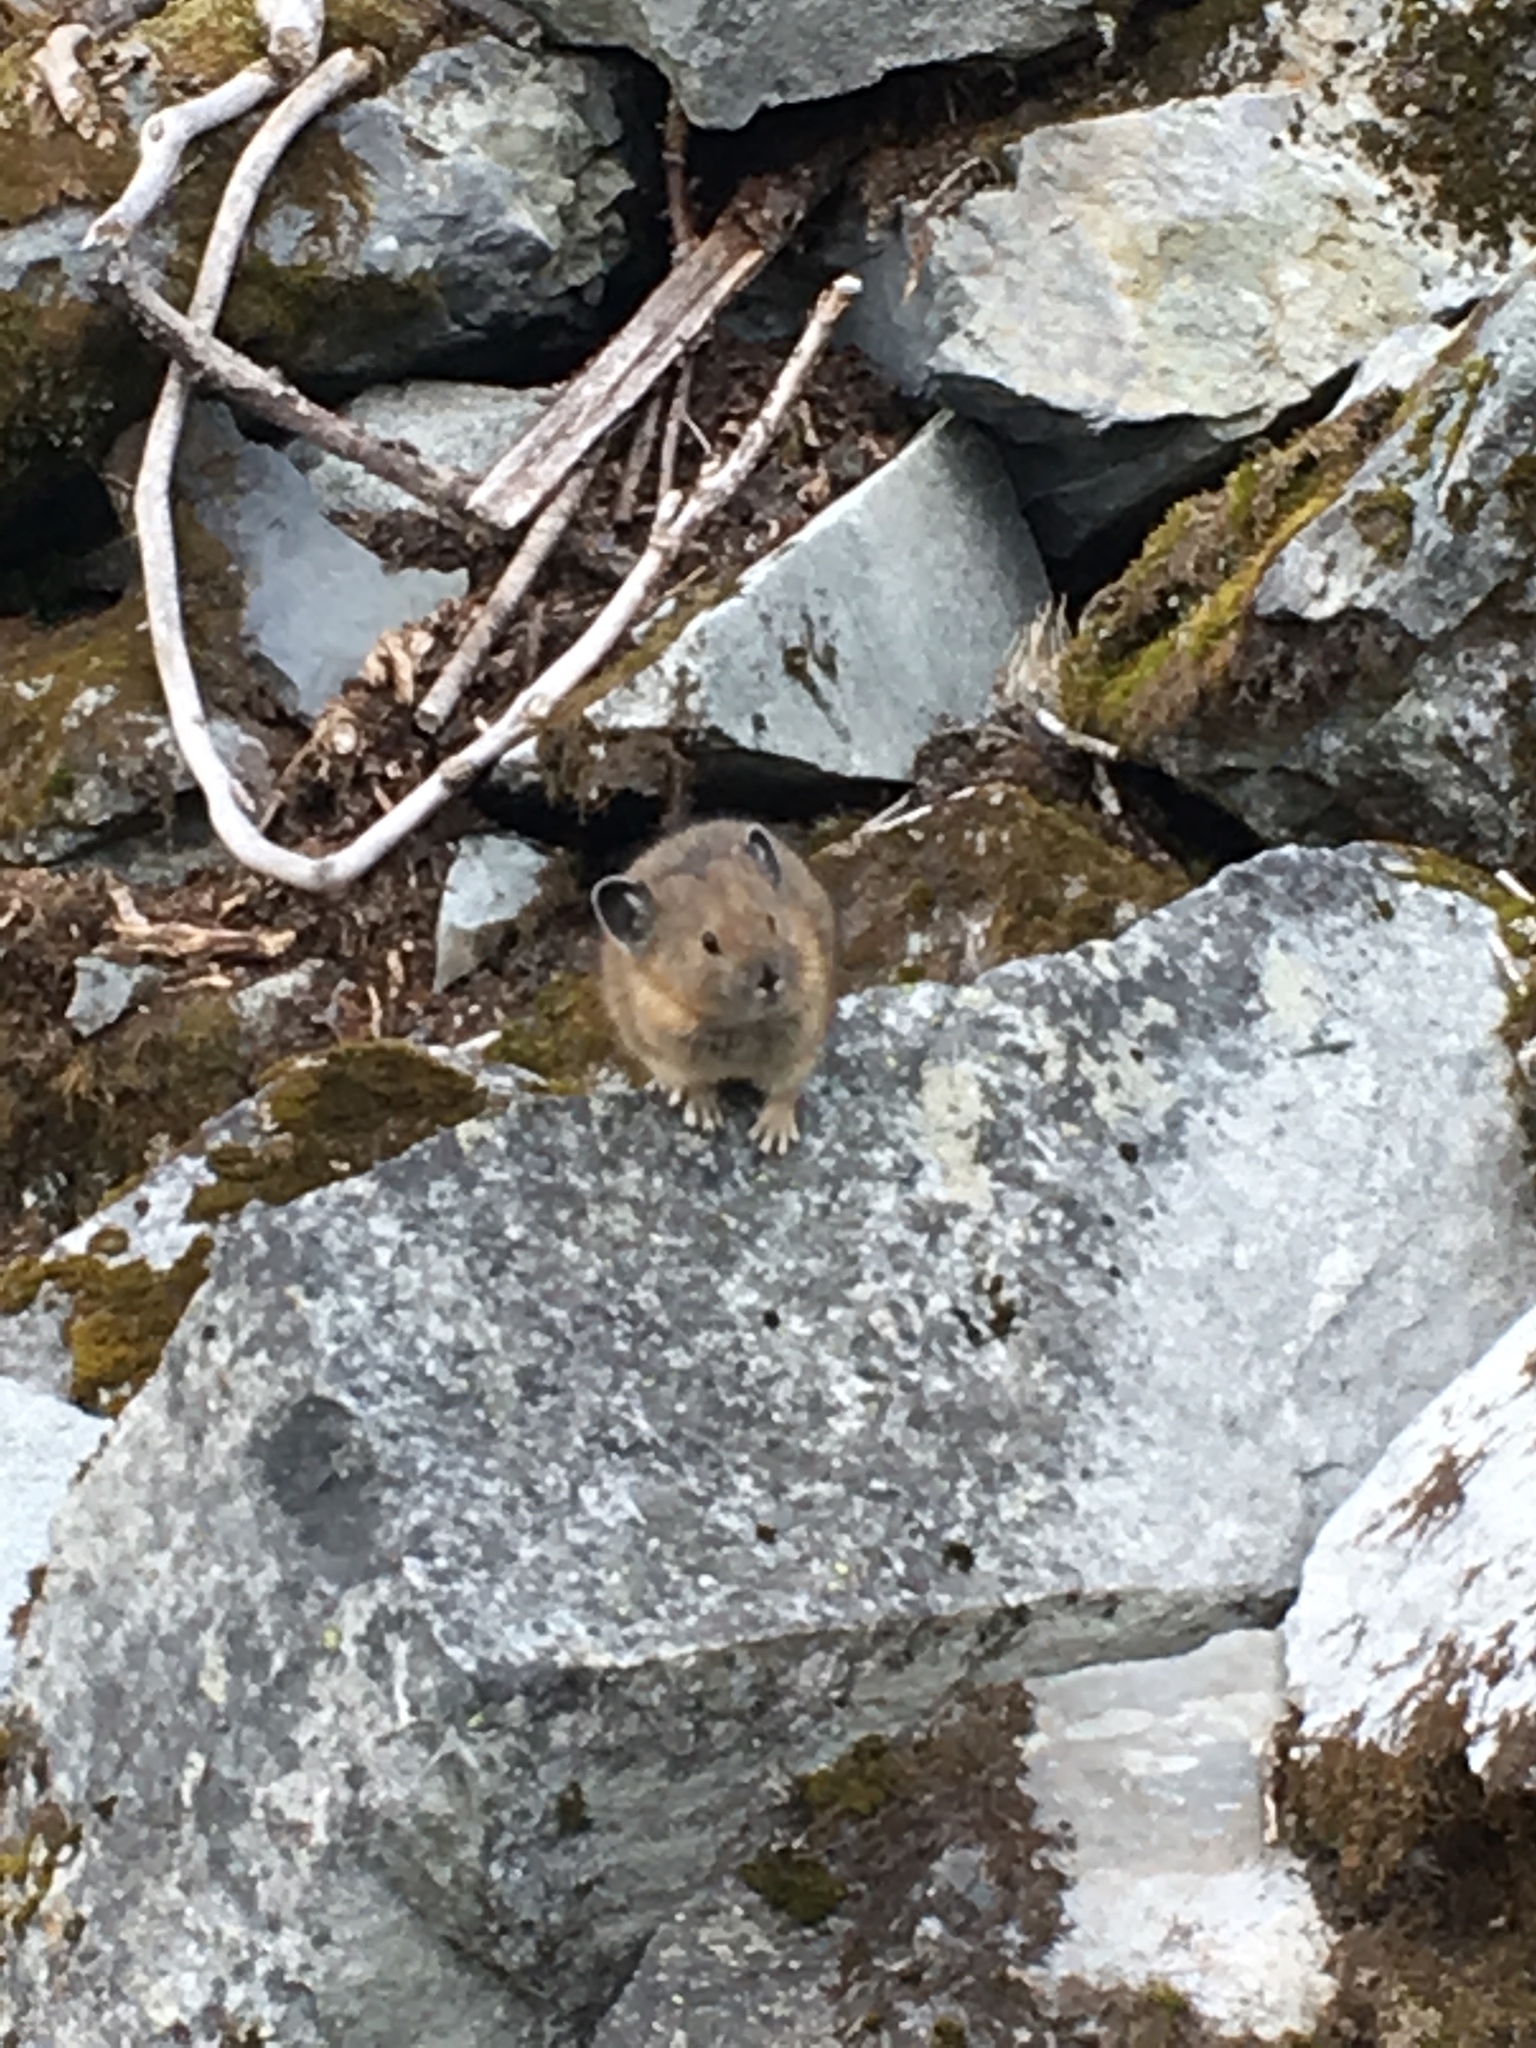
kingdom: Animalia
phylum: Chordata
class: Mammalia
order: Lagomorpha
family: Ochotonidae
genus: Ochotona
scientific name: Ochotona princeps
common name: American pika
